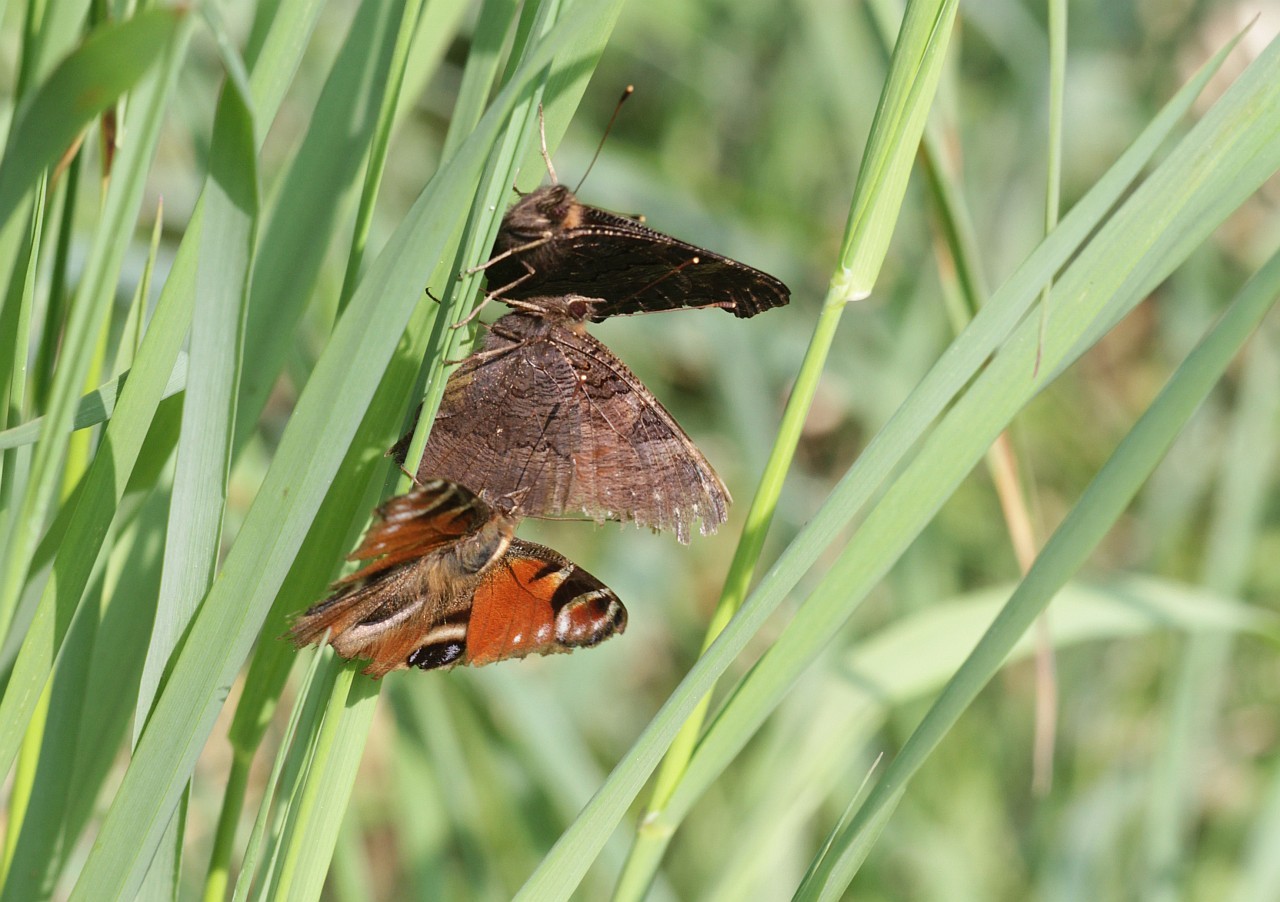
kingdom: Animalia
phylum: Arthropoda
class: Insecta
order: Lepidoptera
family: Nymphalidae
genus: Aglais
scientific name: Aglais io
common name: Peacock
